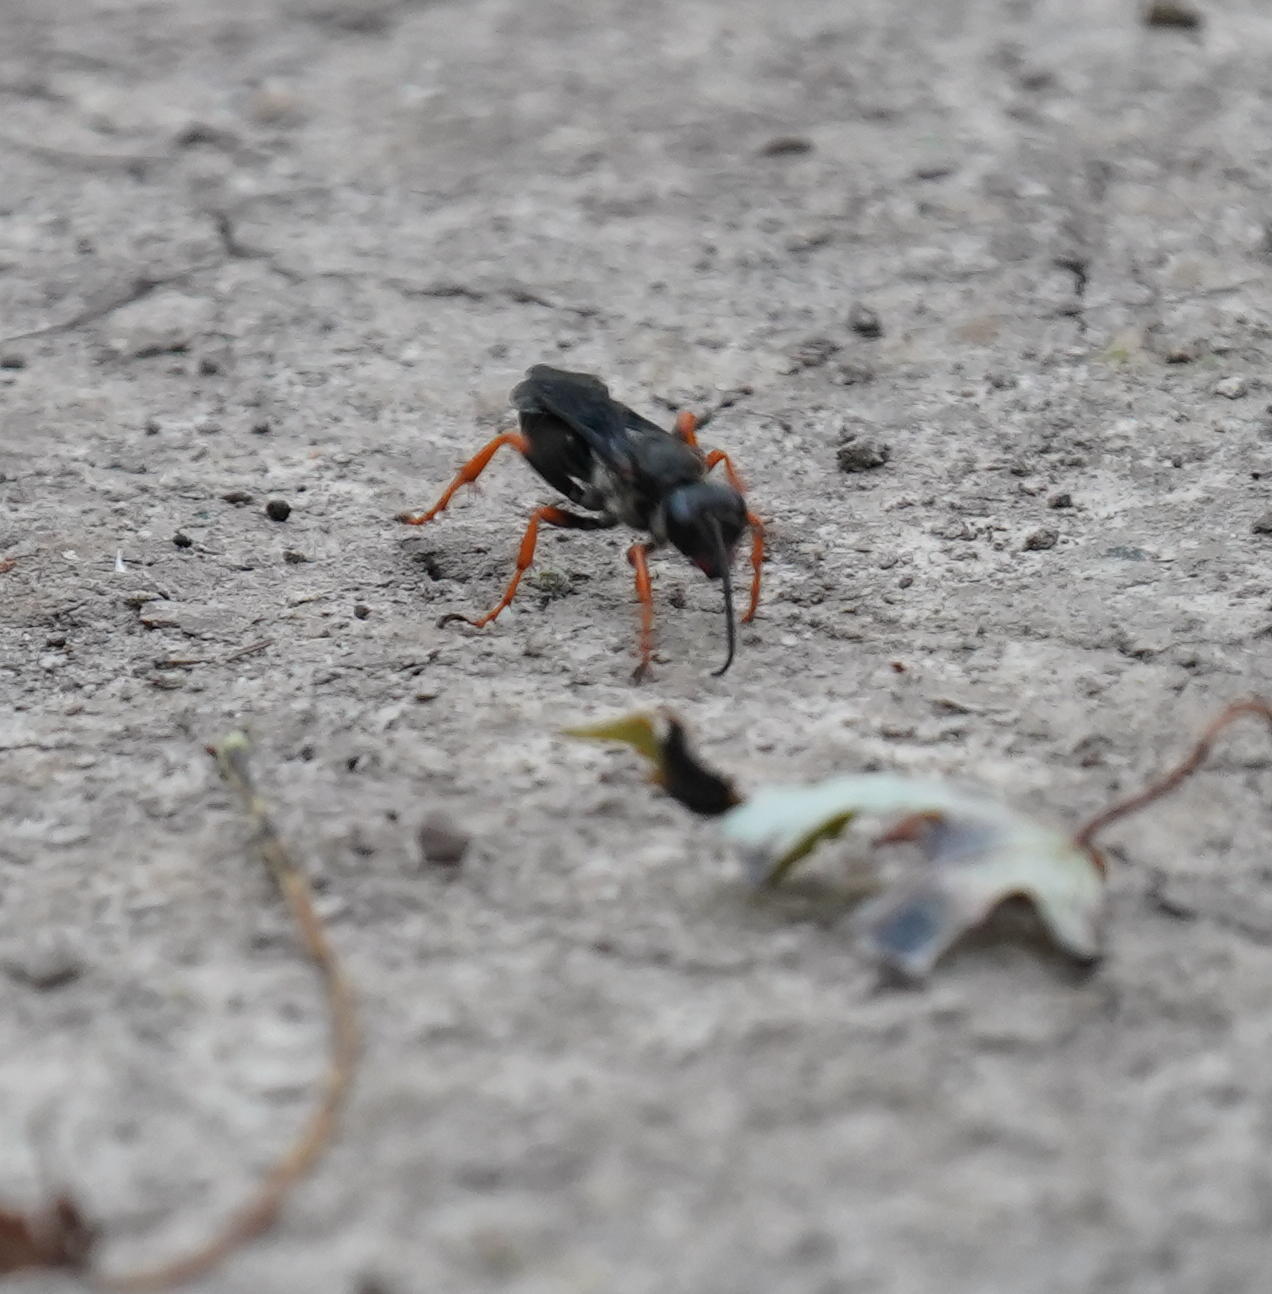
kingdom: Animalia
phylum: Arthropoda
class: Insecta
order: Hymenoptera
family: Sphecidae
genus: Sphex
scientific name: Sphex nudus
